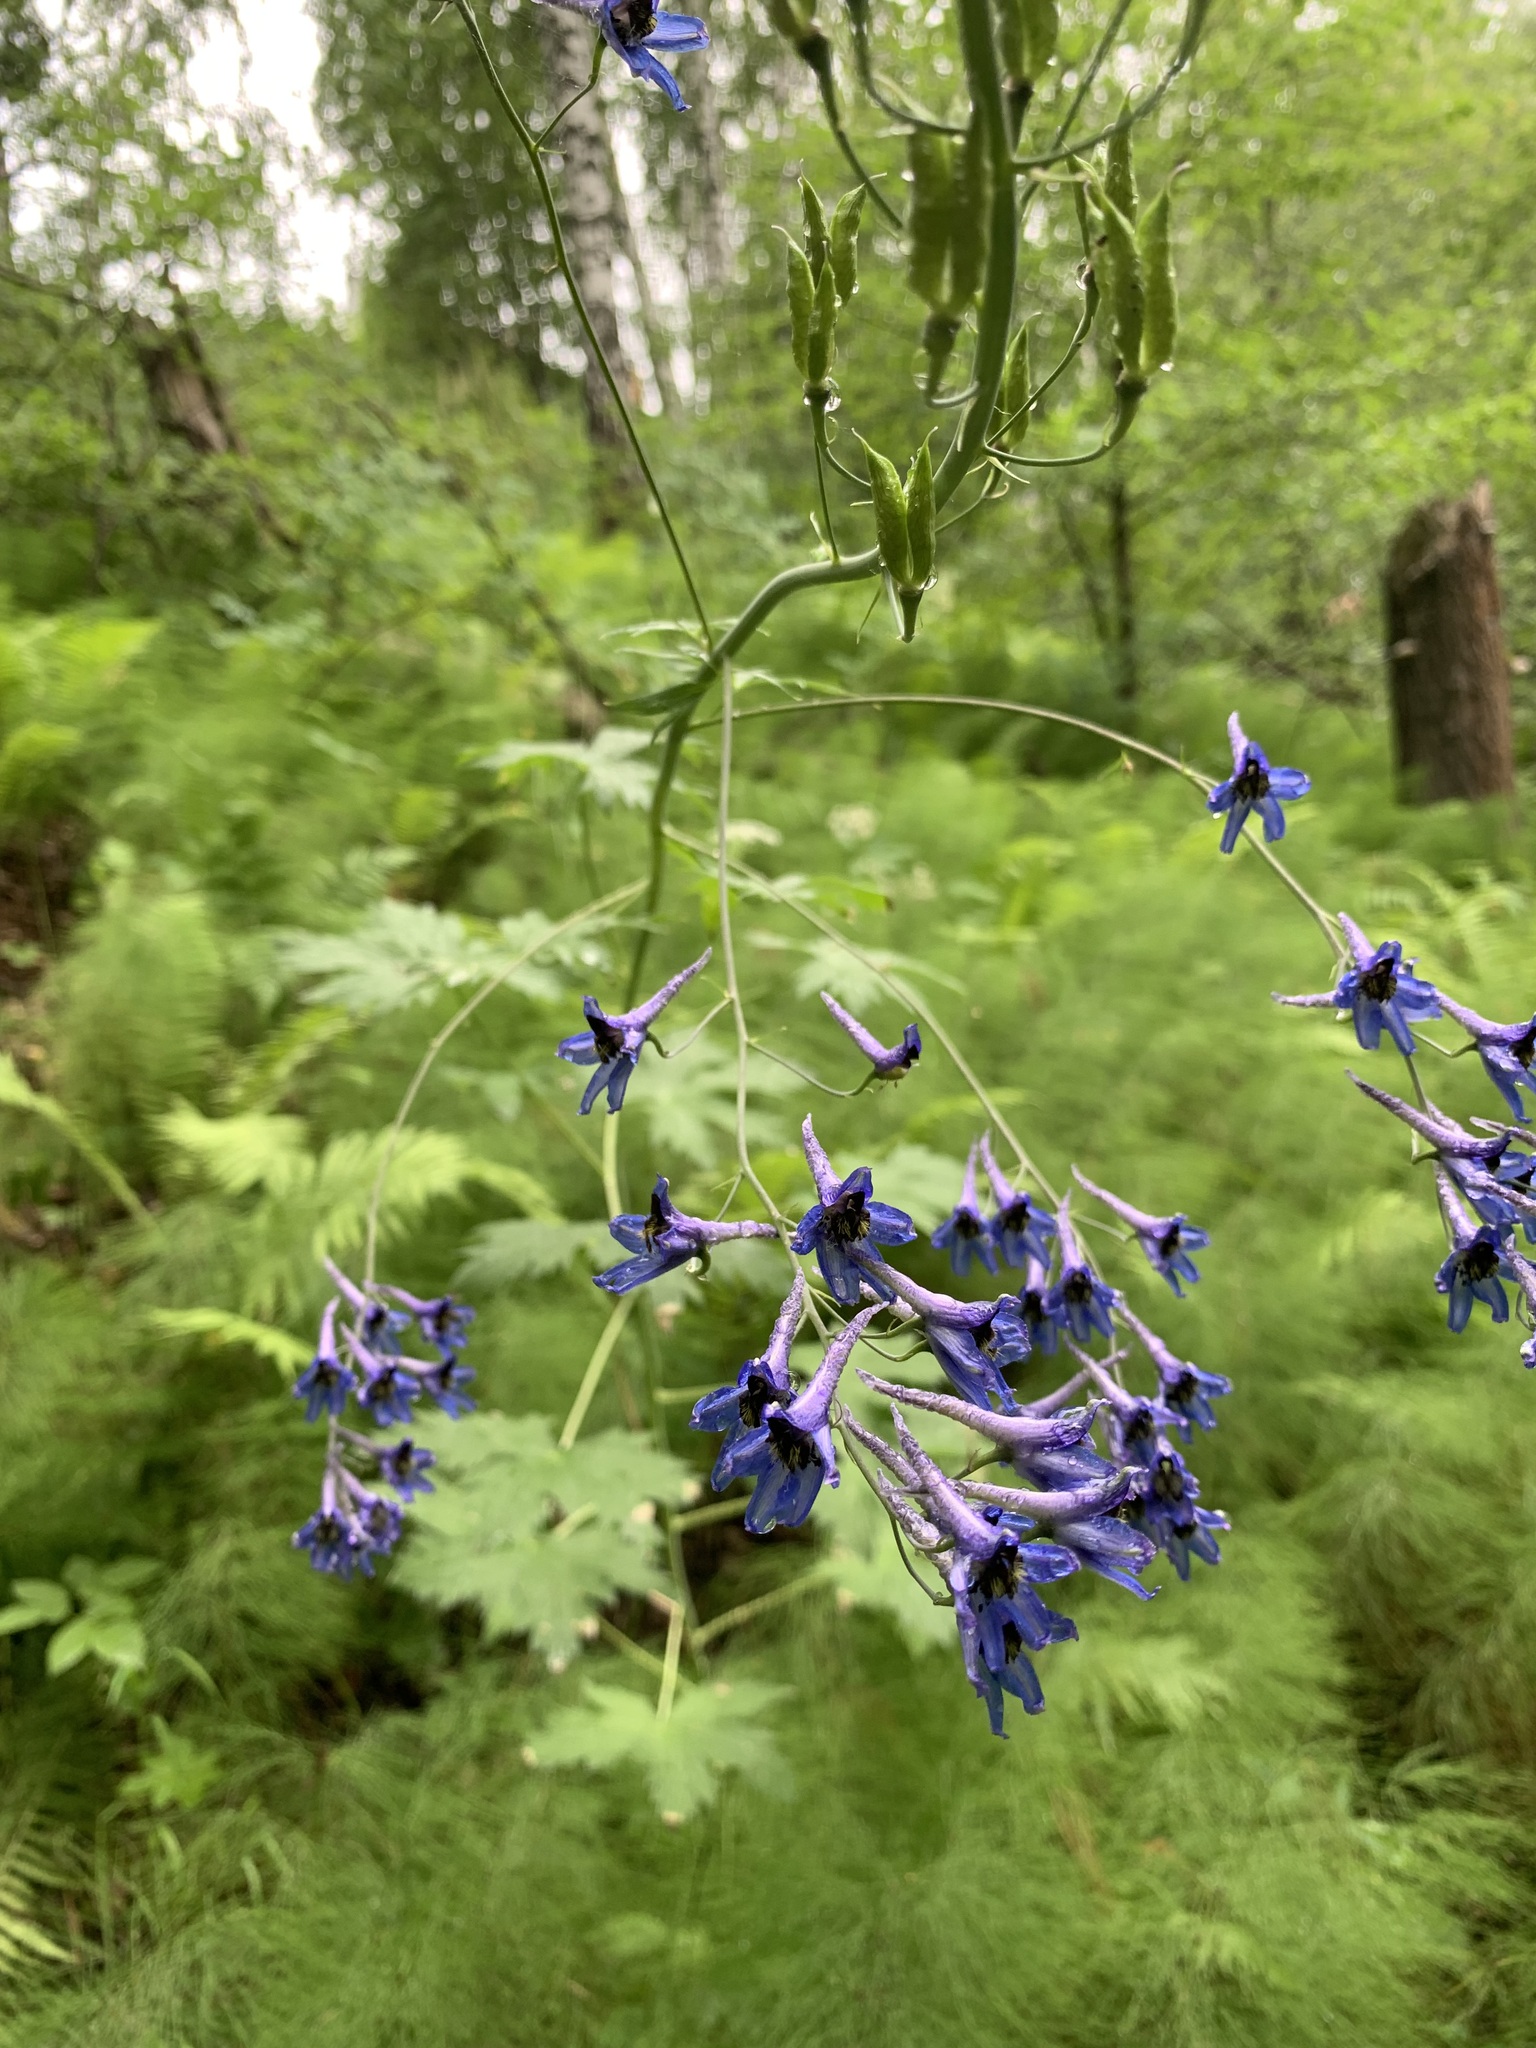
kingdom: Plantae
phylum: Tracheophyta
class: Magnoliopsida
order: Ranunculales
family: Ranunculaceae
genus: Delphinium
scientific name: Delphinium elatum
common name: Candle larkspur
